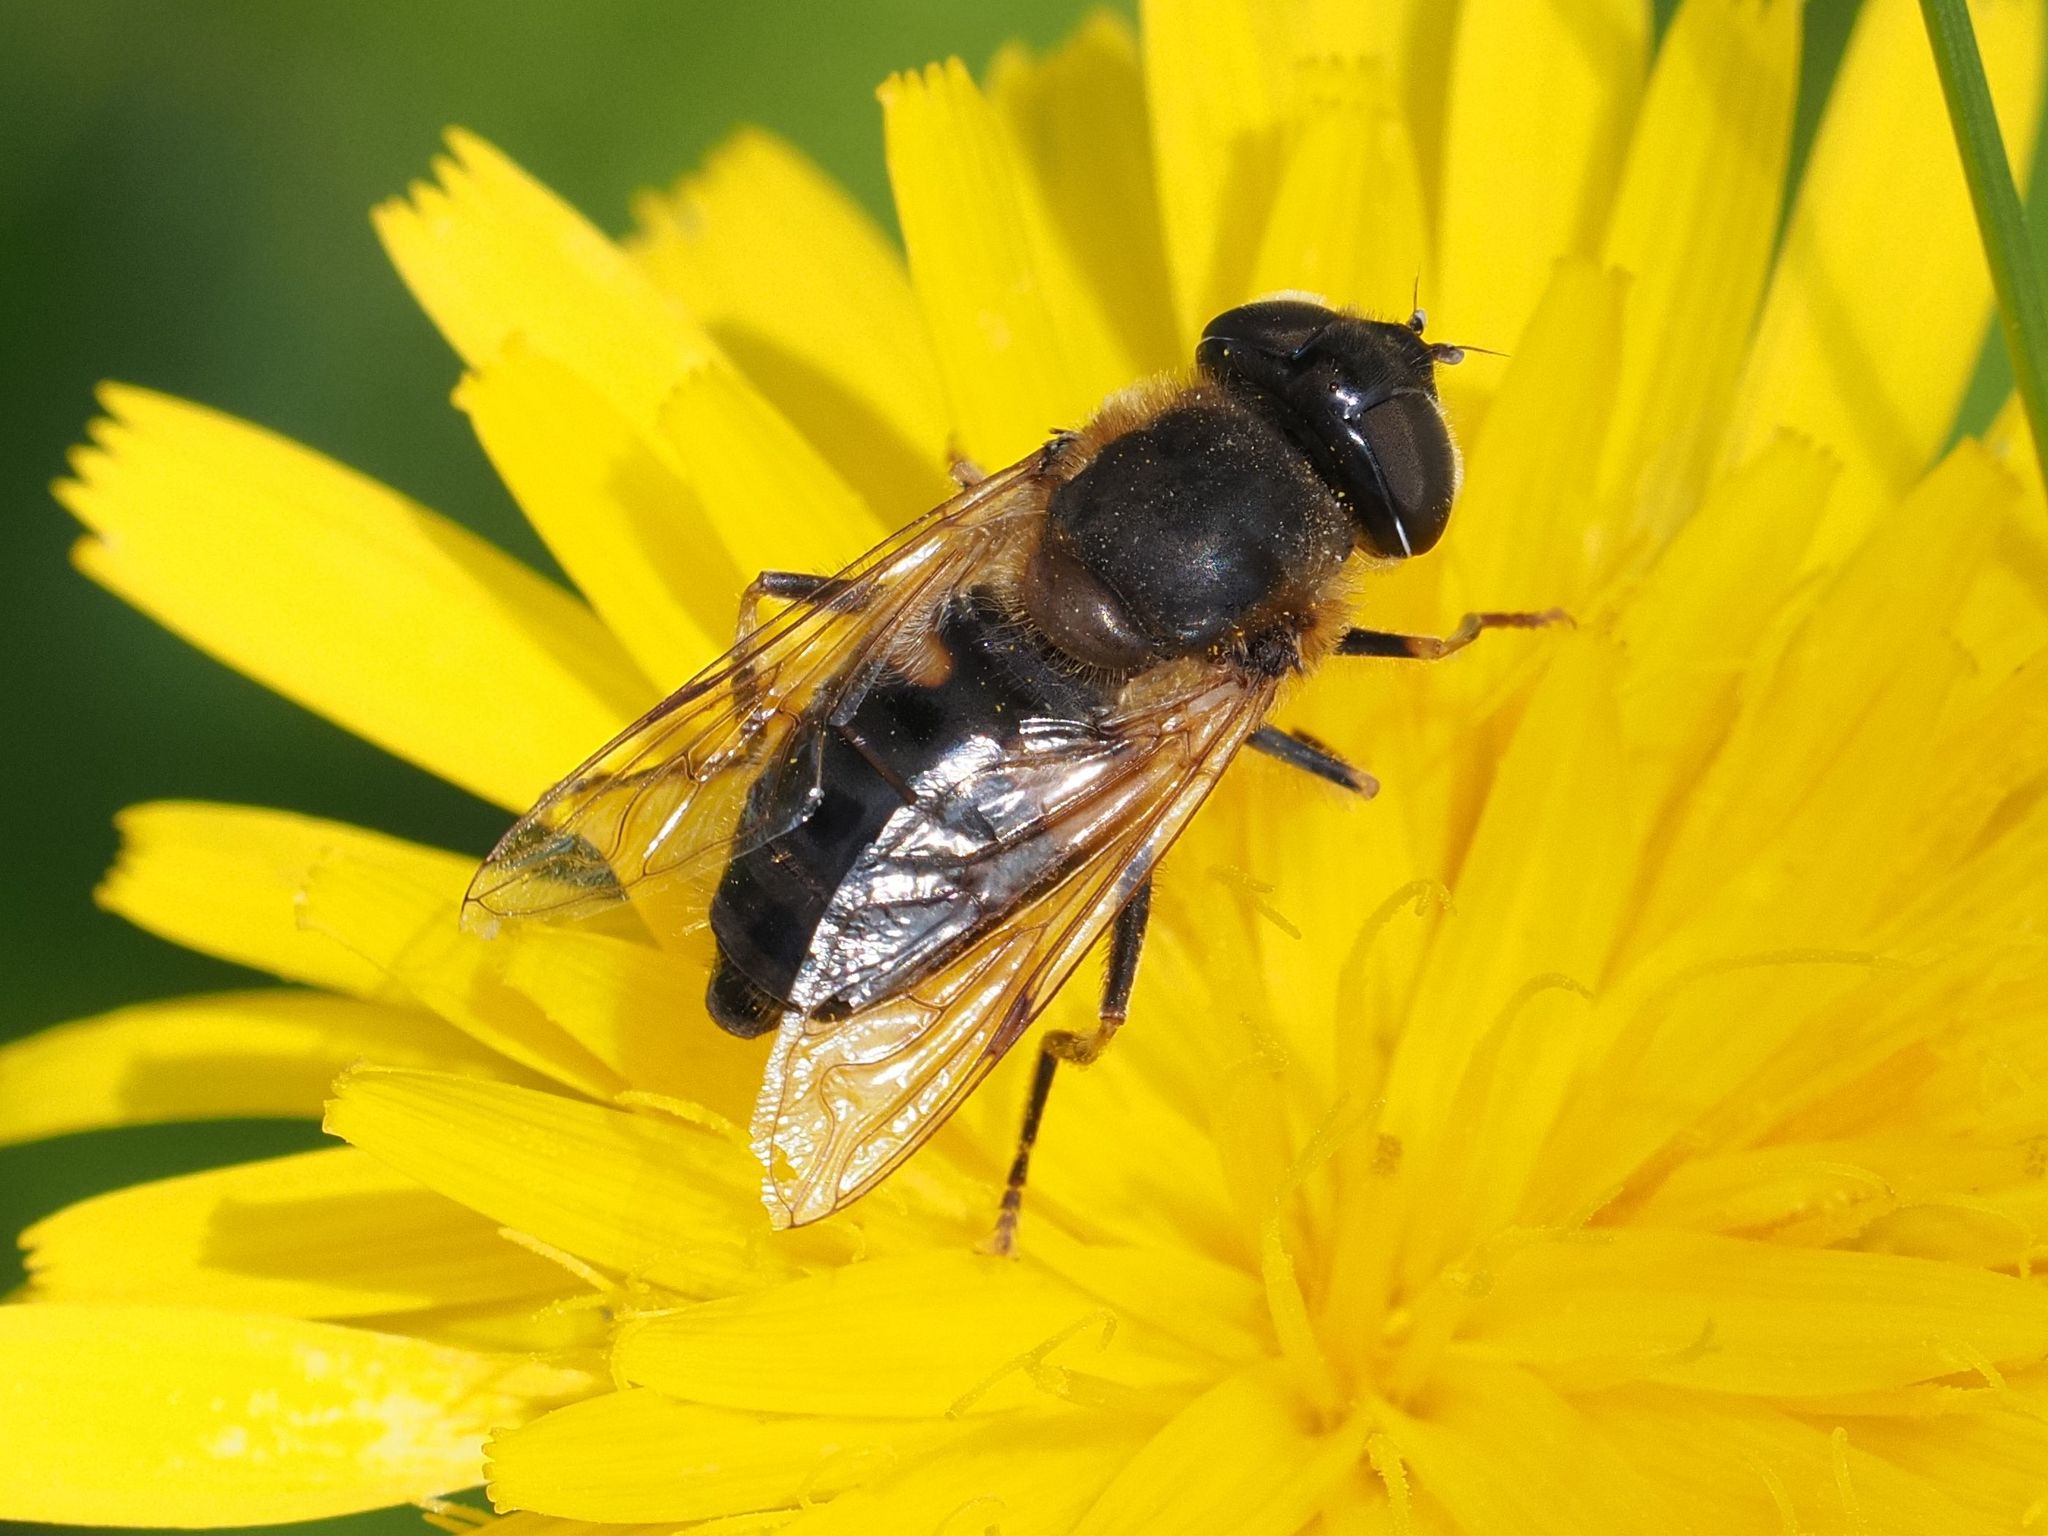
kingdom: Animalia
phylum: Arthropoda
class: Insecta
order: Diptera
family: Syrphidae
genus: Eristalis
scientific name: Eristalis pertinax
